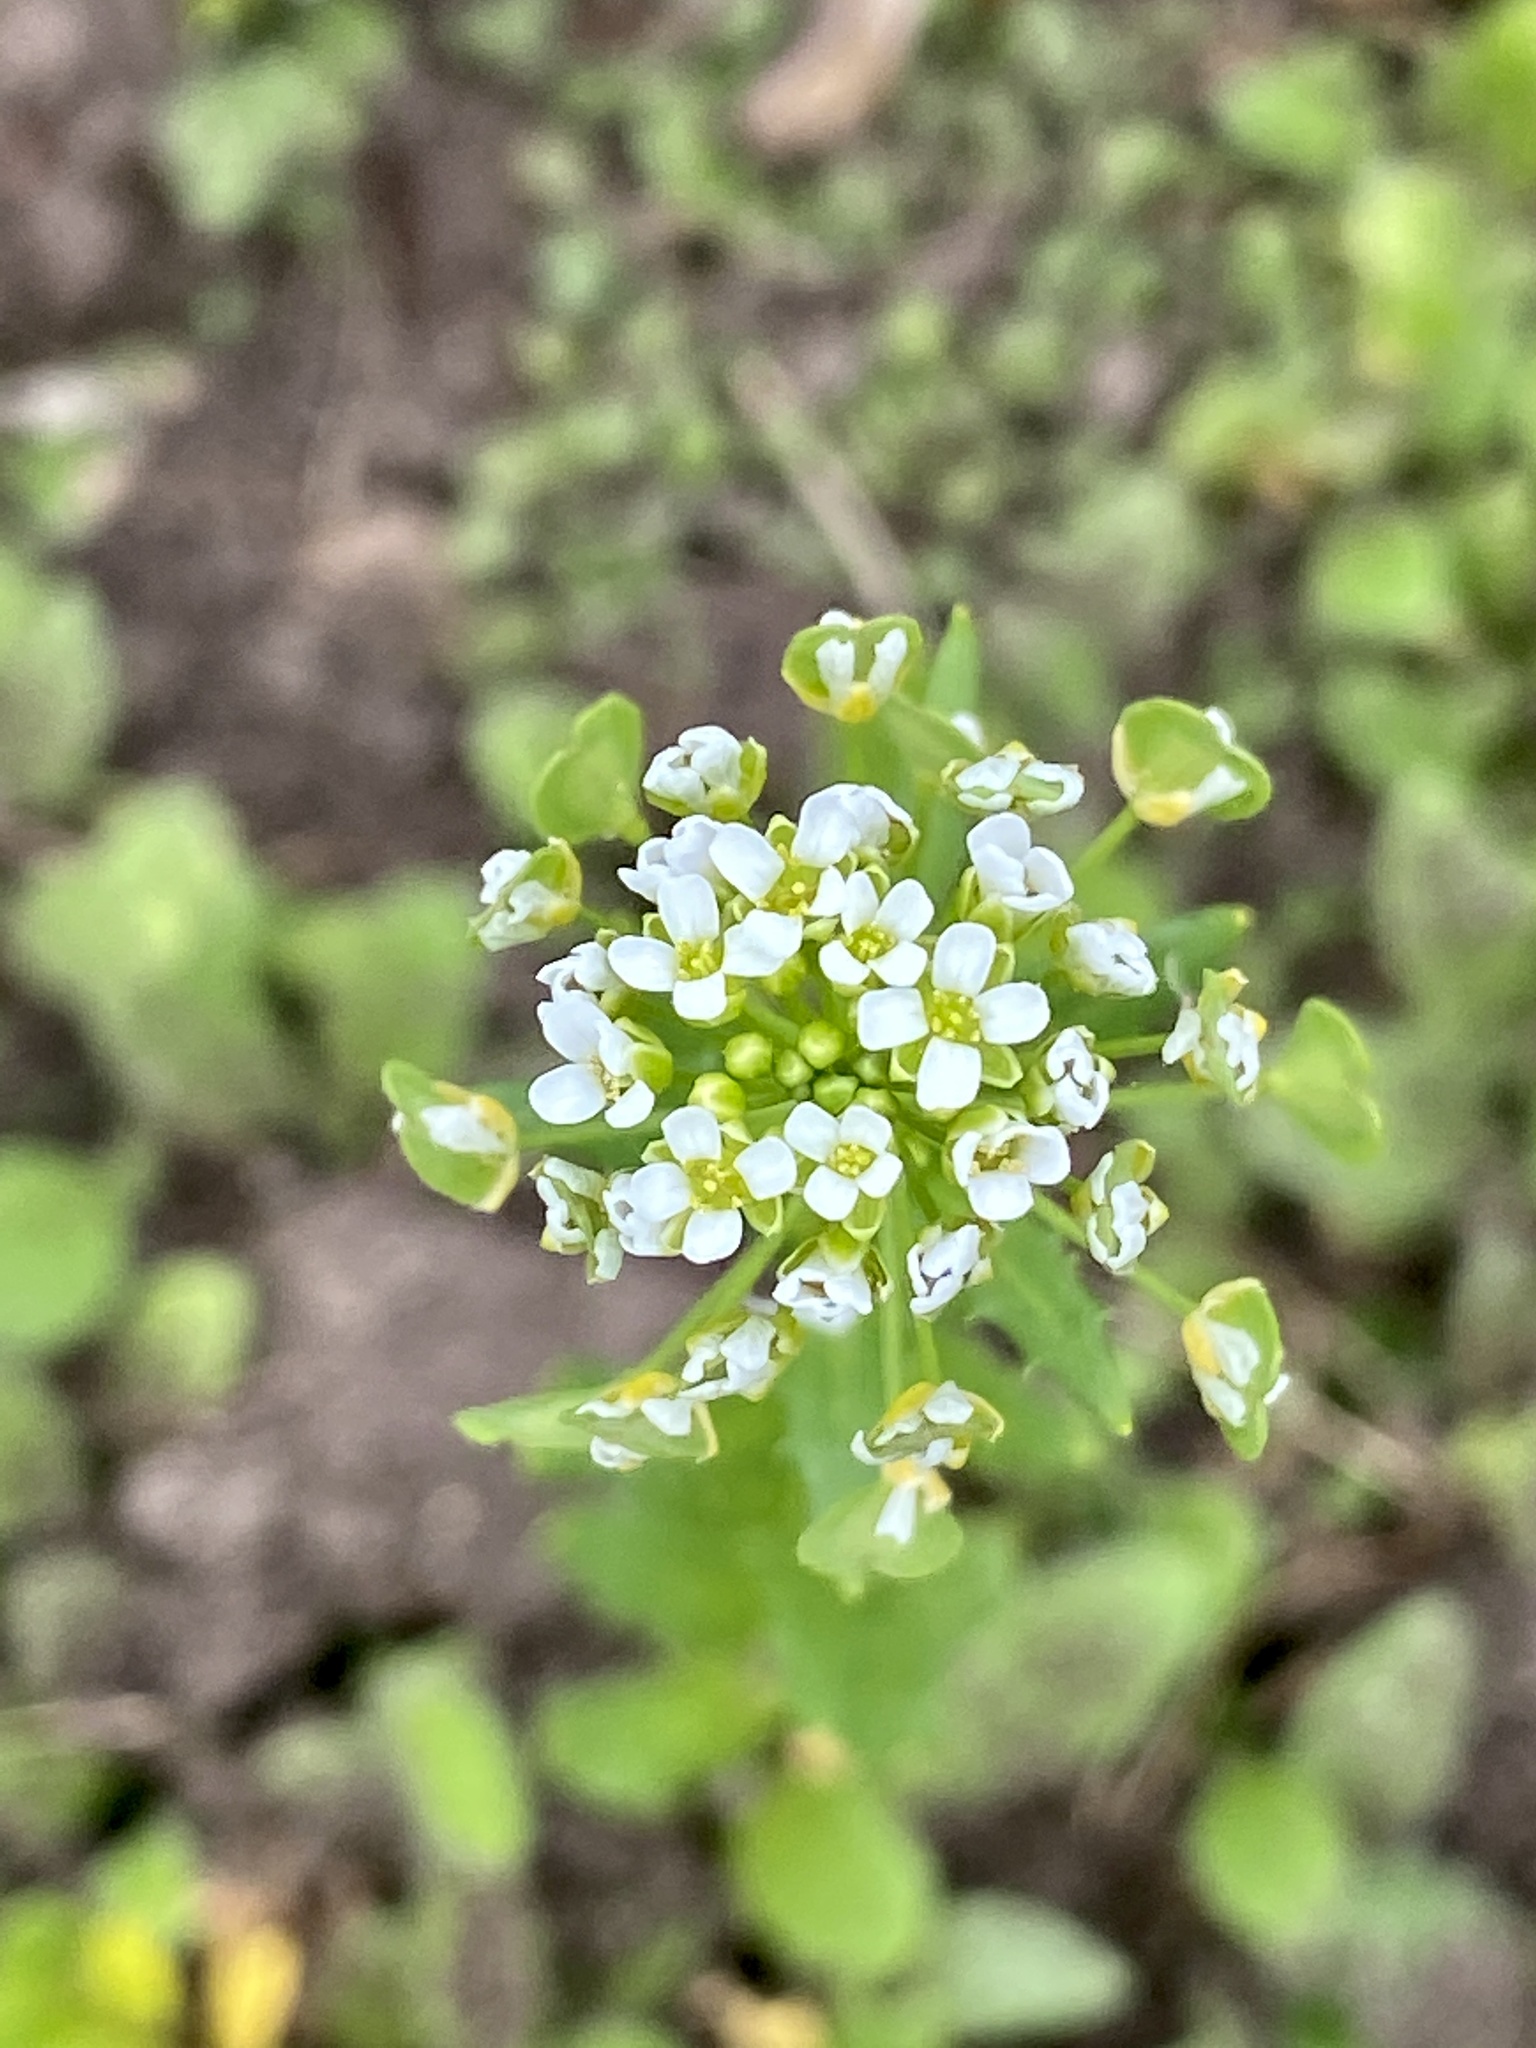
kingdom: Plantae
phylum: Tracheophyta
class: Magnoliopsida
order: Brassicales
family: Brassicaceae
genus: Thlaspi
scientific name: Thlaspi arvense
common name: Field pennycress
